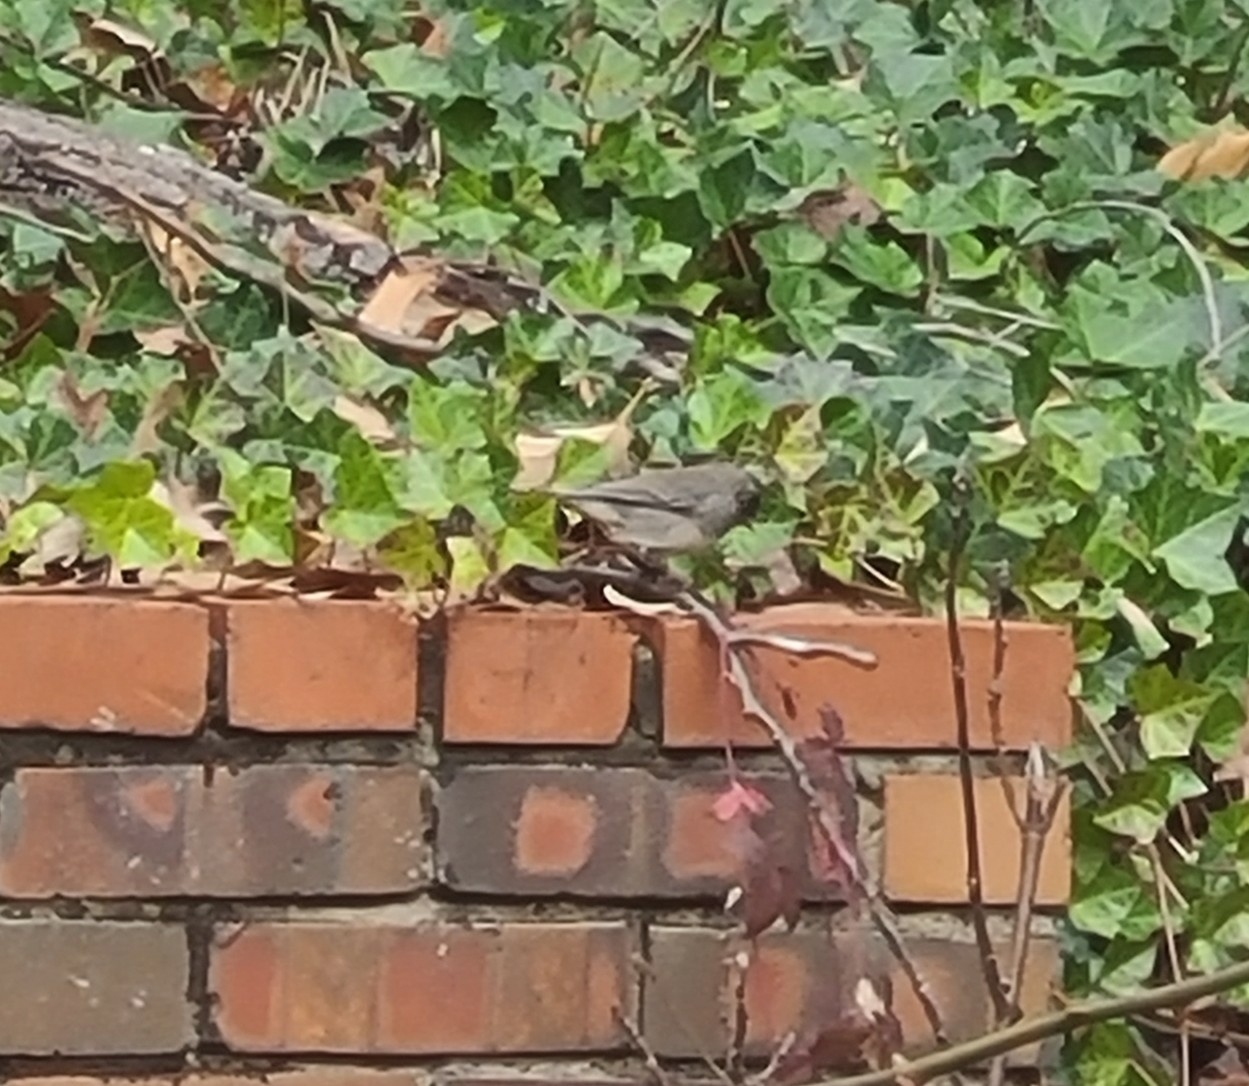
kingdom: Animalia
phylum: Chordata
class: Aves
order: Passeriformes
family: Passerellidae
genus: Junco
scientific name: Junco hyemalis
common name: Dark-eyed junco
